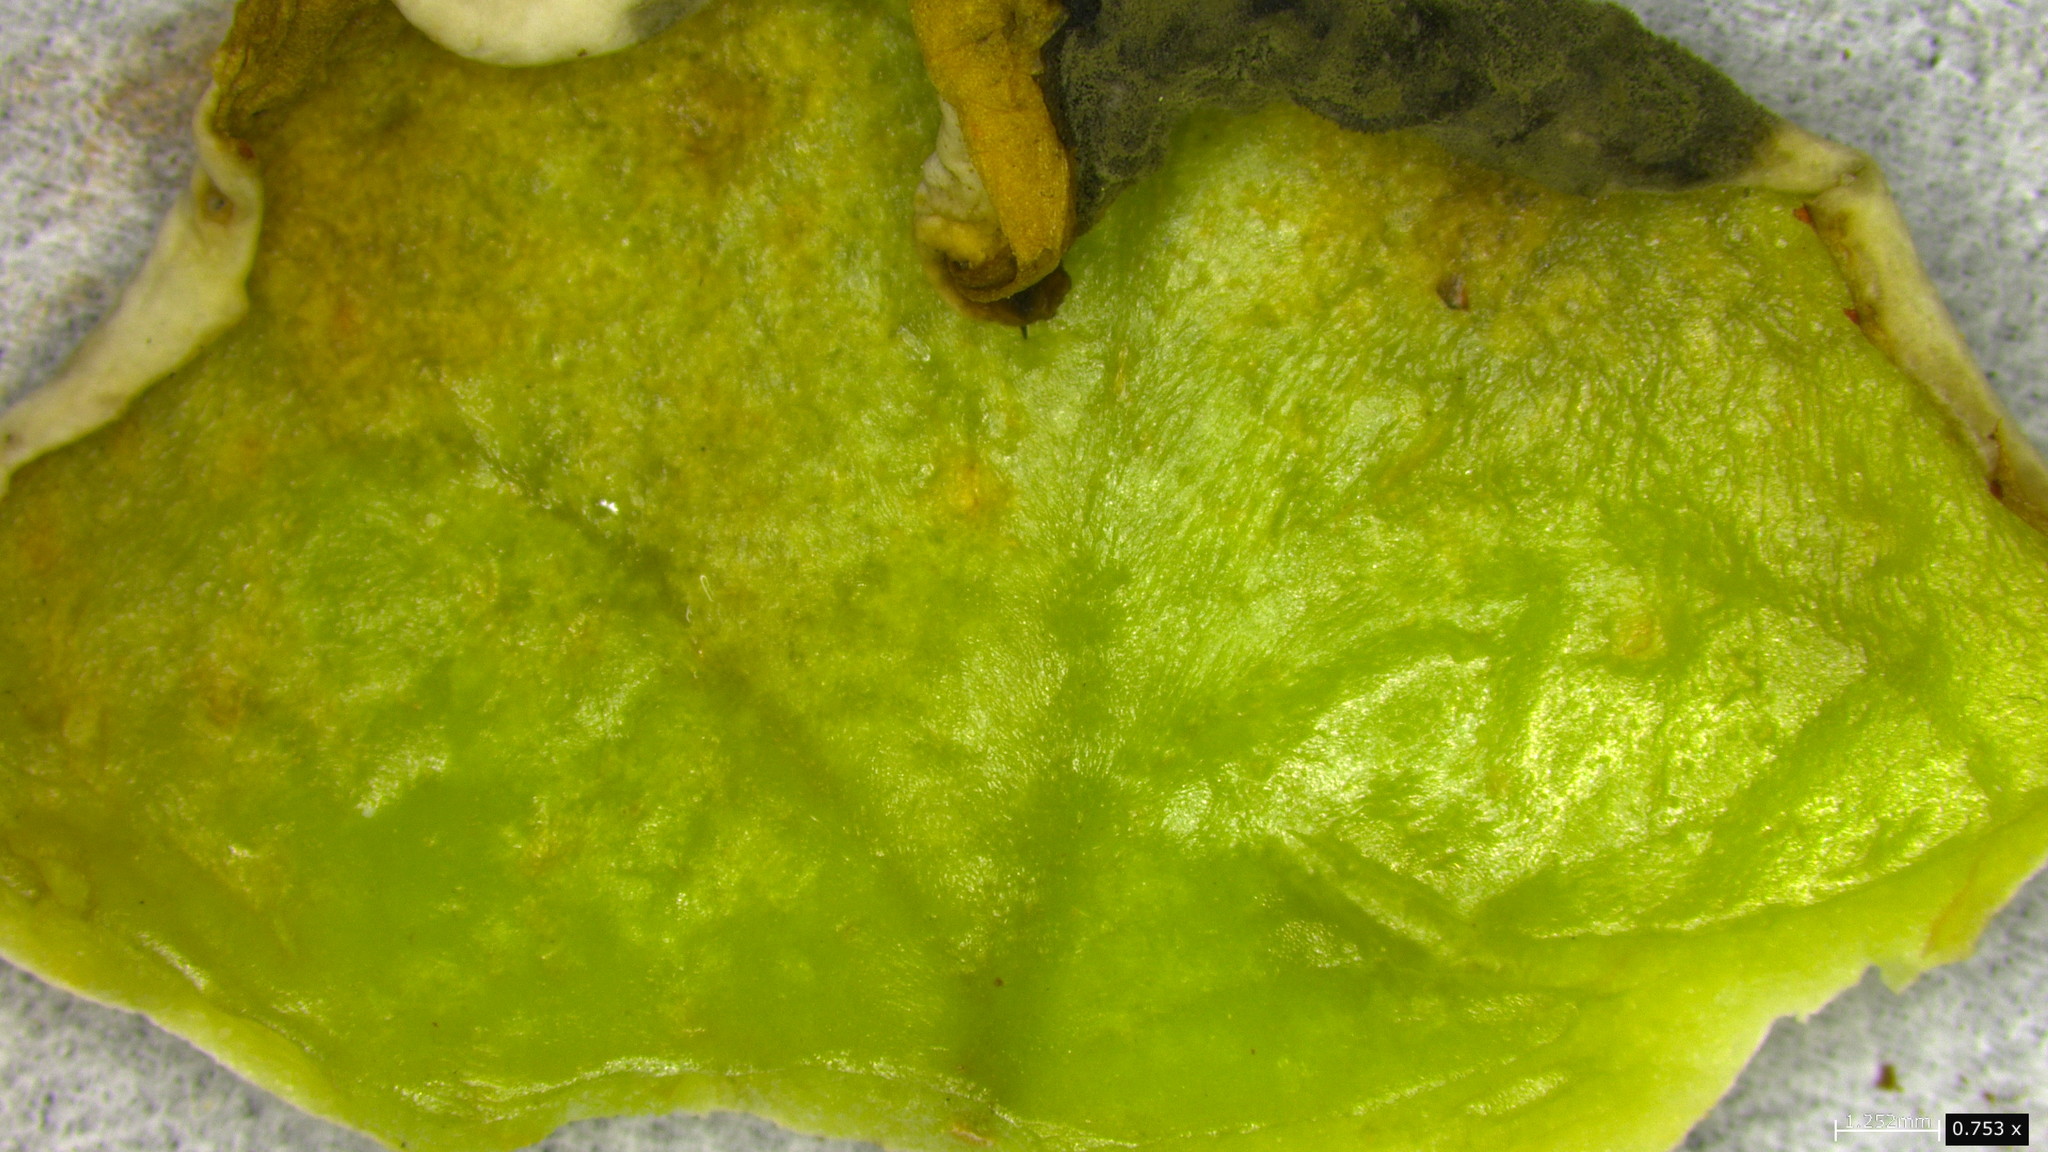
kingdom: Fungi
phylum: Basidiomycota
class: Exobasidiomycetes
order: Exobasidiales
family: Exobasidiaceae
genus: Exobasidium
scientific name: Exobasidium gracile
